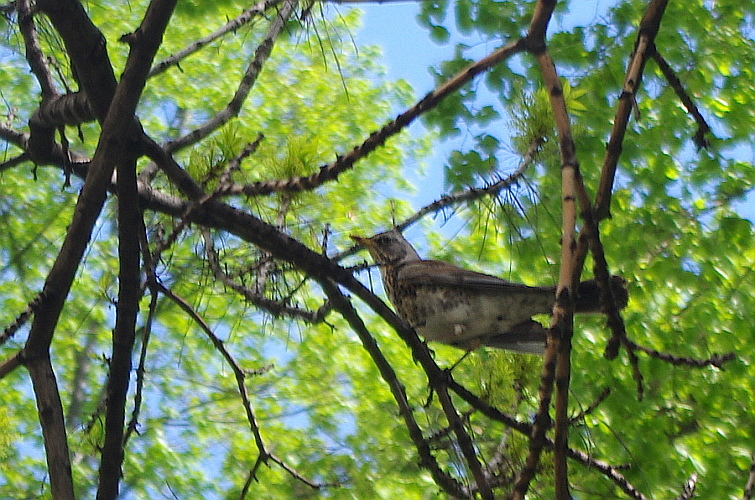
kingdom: Animalia
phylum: Chordata
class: Aves
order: Passeriformes
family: Turdidae
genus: Turdus
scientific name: Turdus pilaris
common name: Fieldfare
